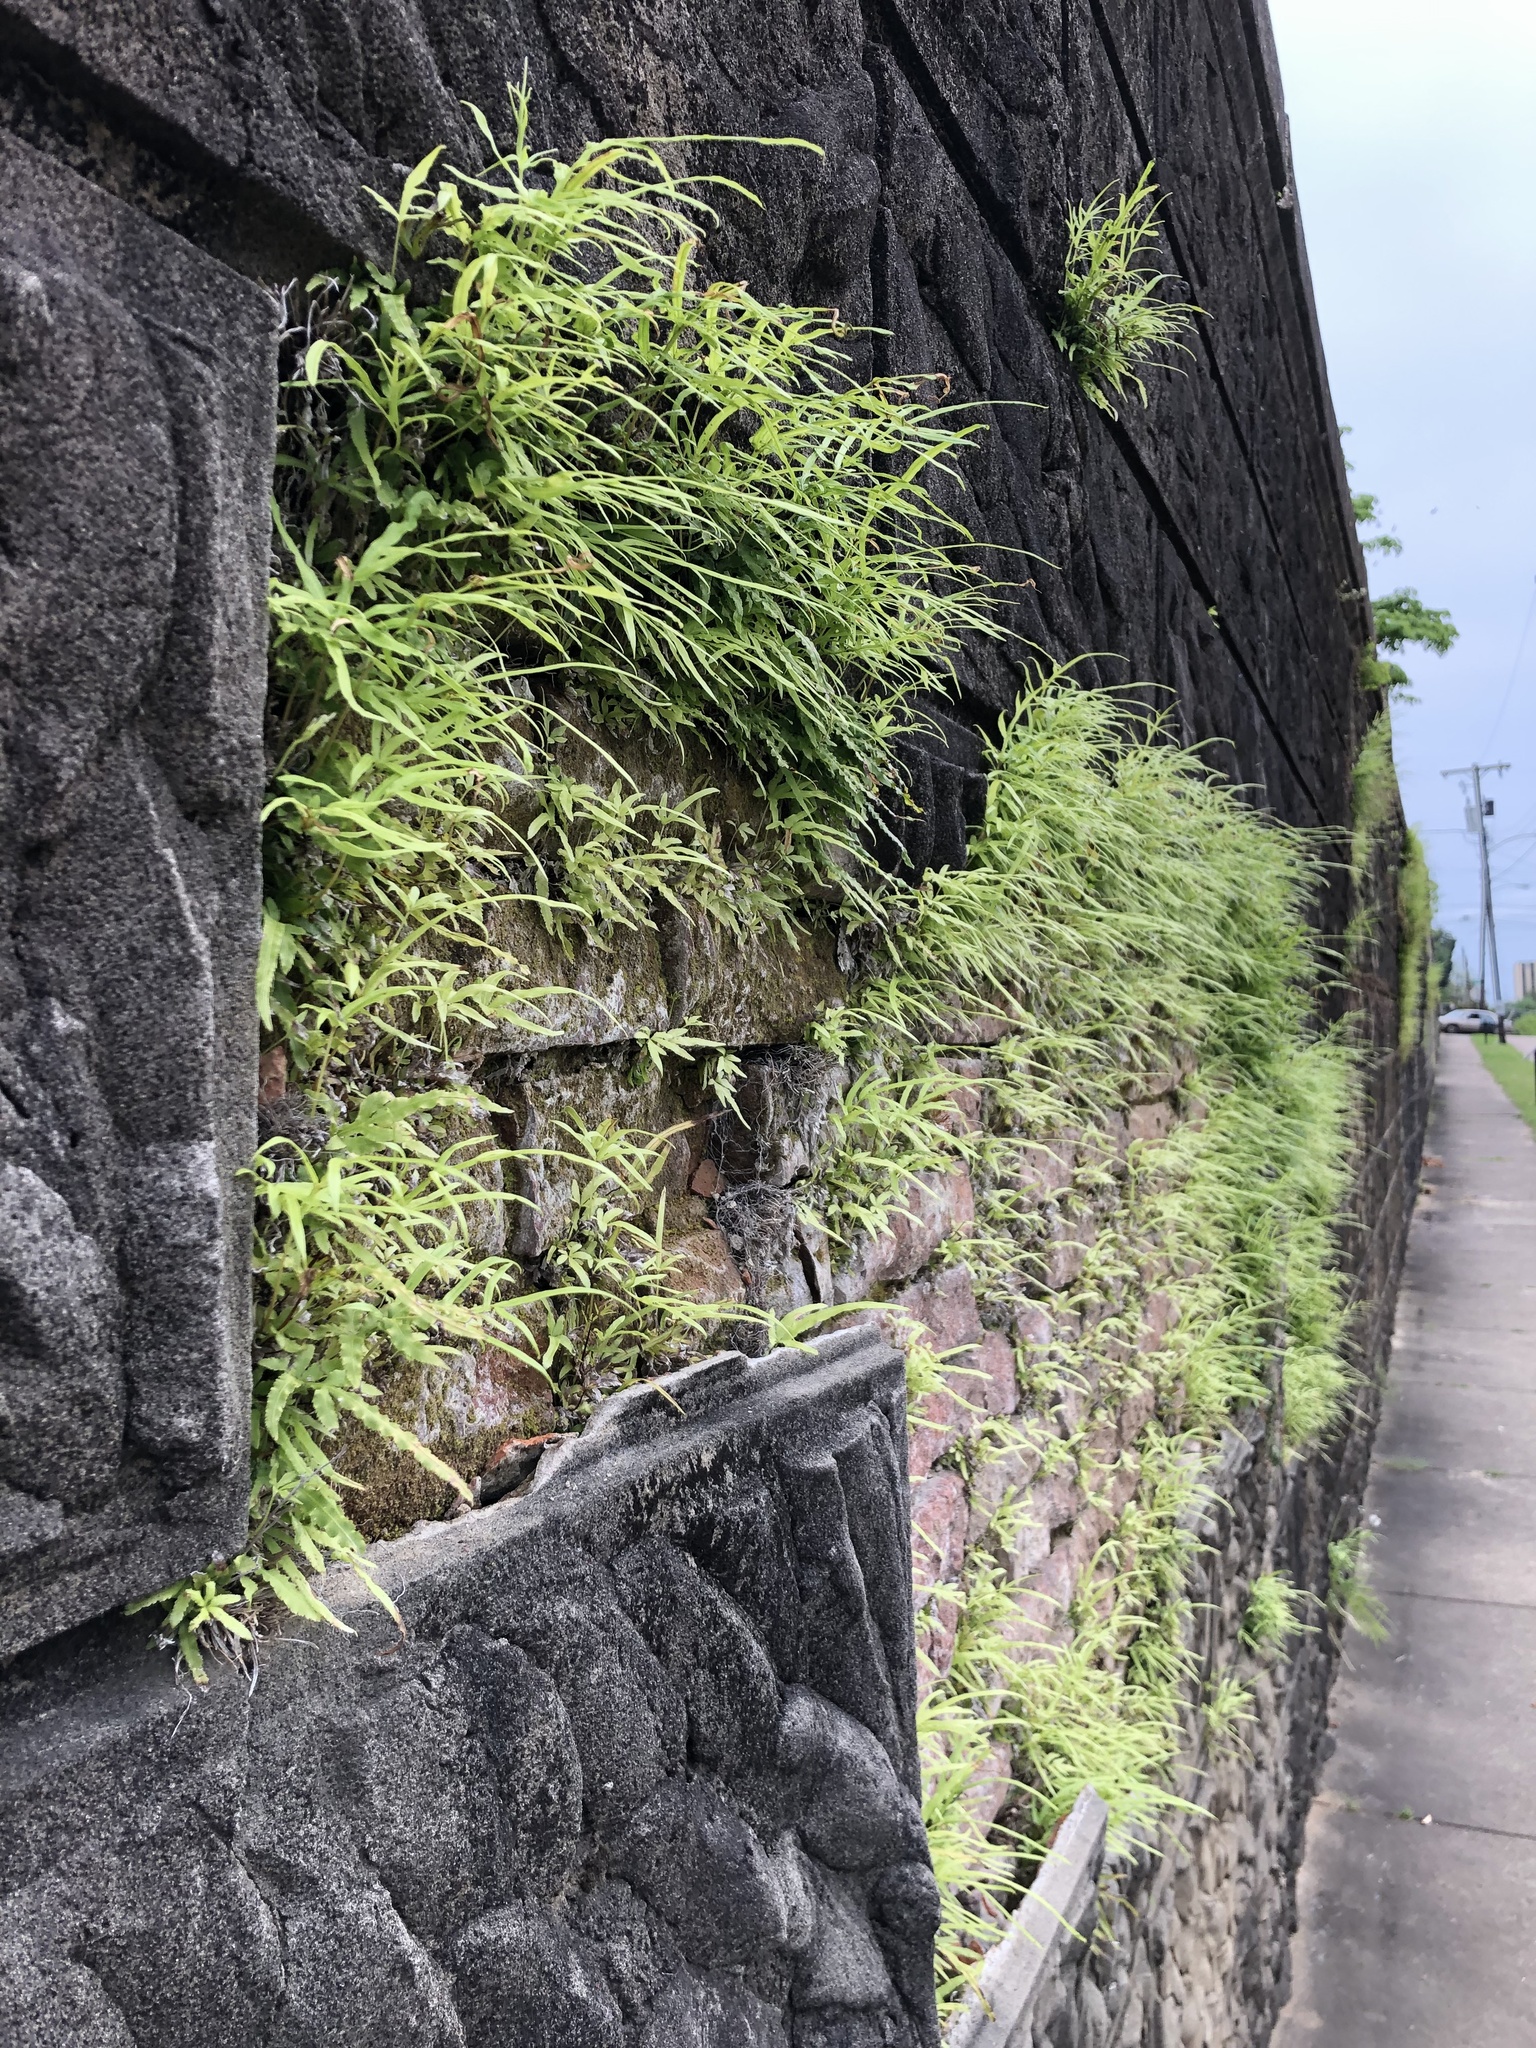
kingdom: Plantae
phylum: Tracheophyta
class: Polypodiopsida
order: Polypodiales
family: Pteridaceae
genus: Pteris
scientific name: Pteris multifida
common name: Spider brake
